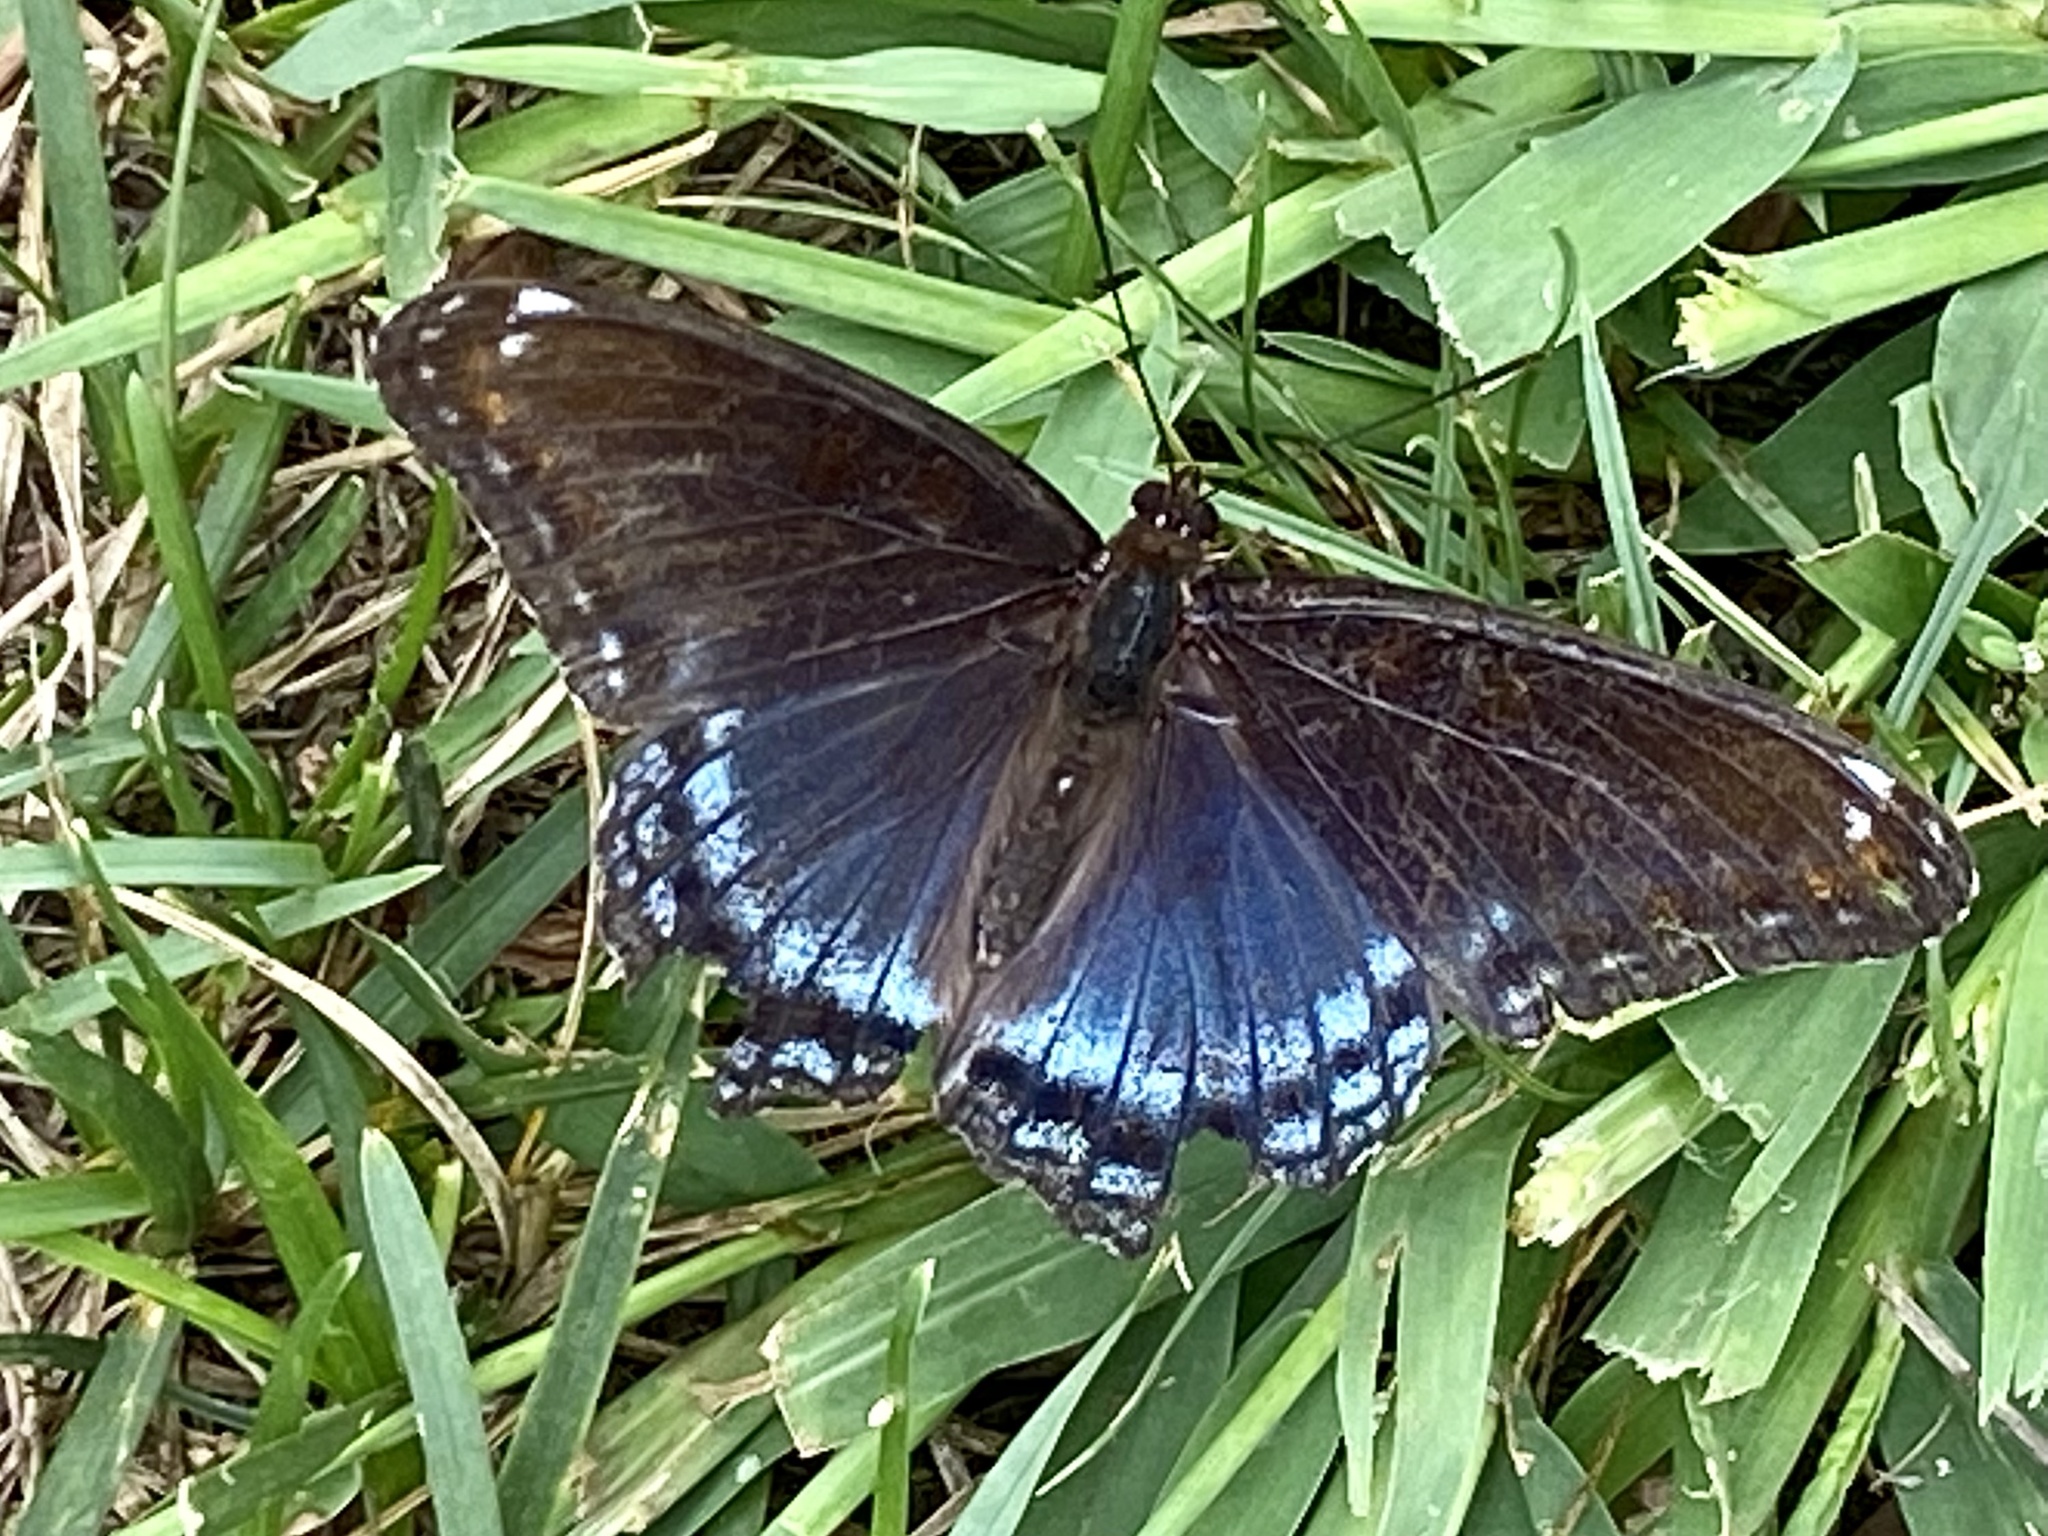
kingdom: Animalia
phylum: Arthropoda
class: Insecta
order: Lepidoptera
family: Nymphalidae
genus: Limenitis
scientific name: Limenitis astyanax
